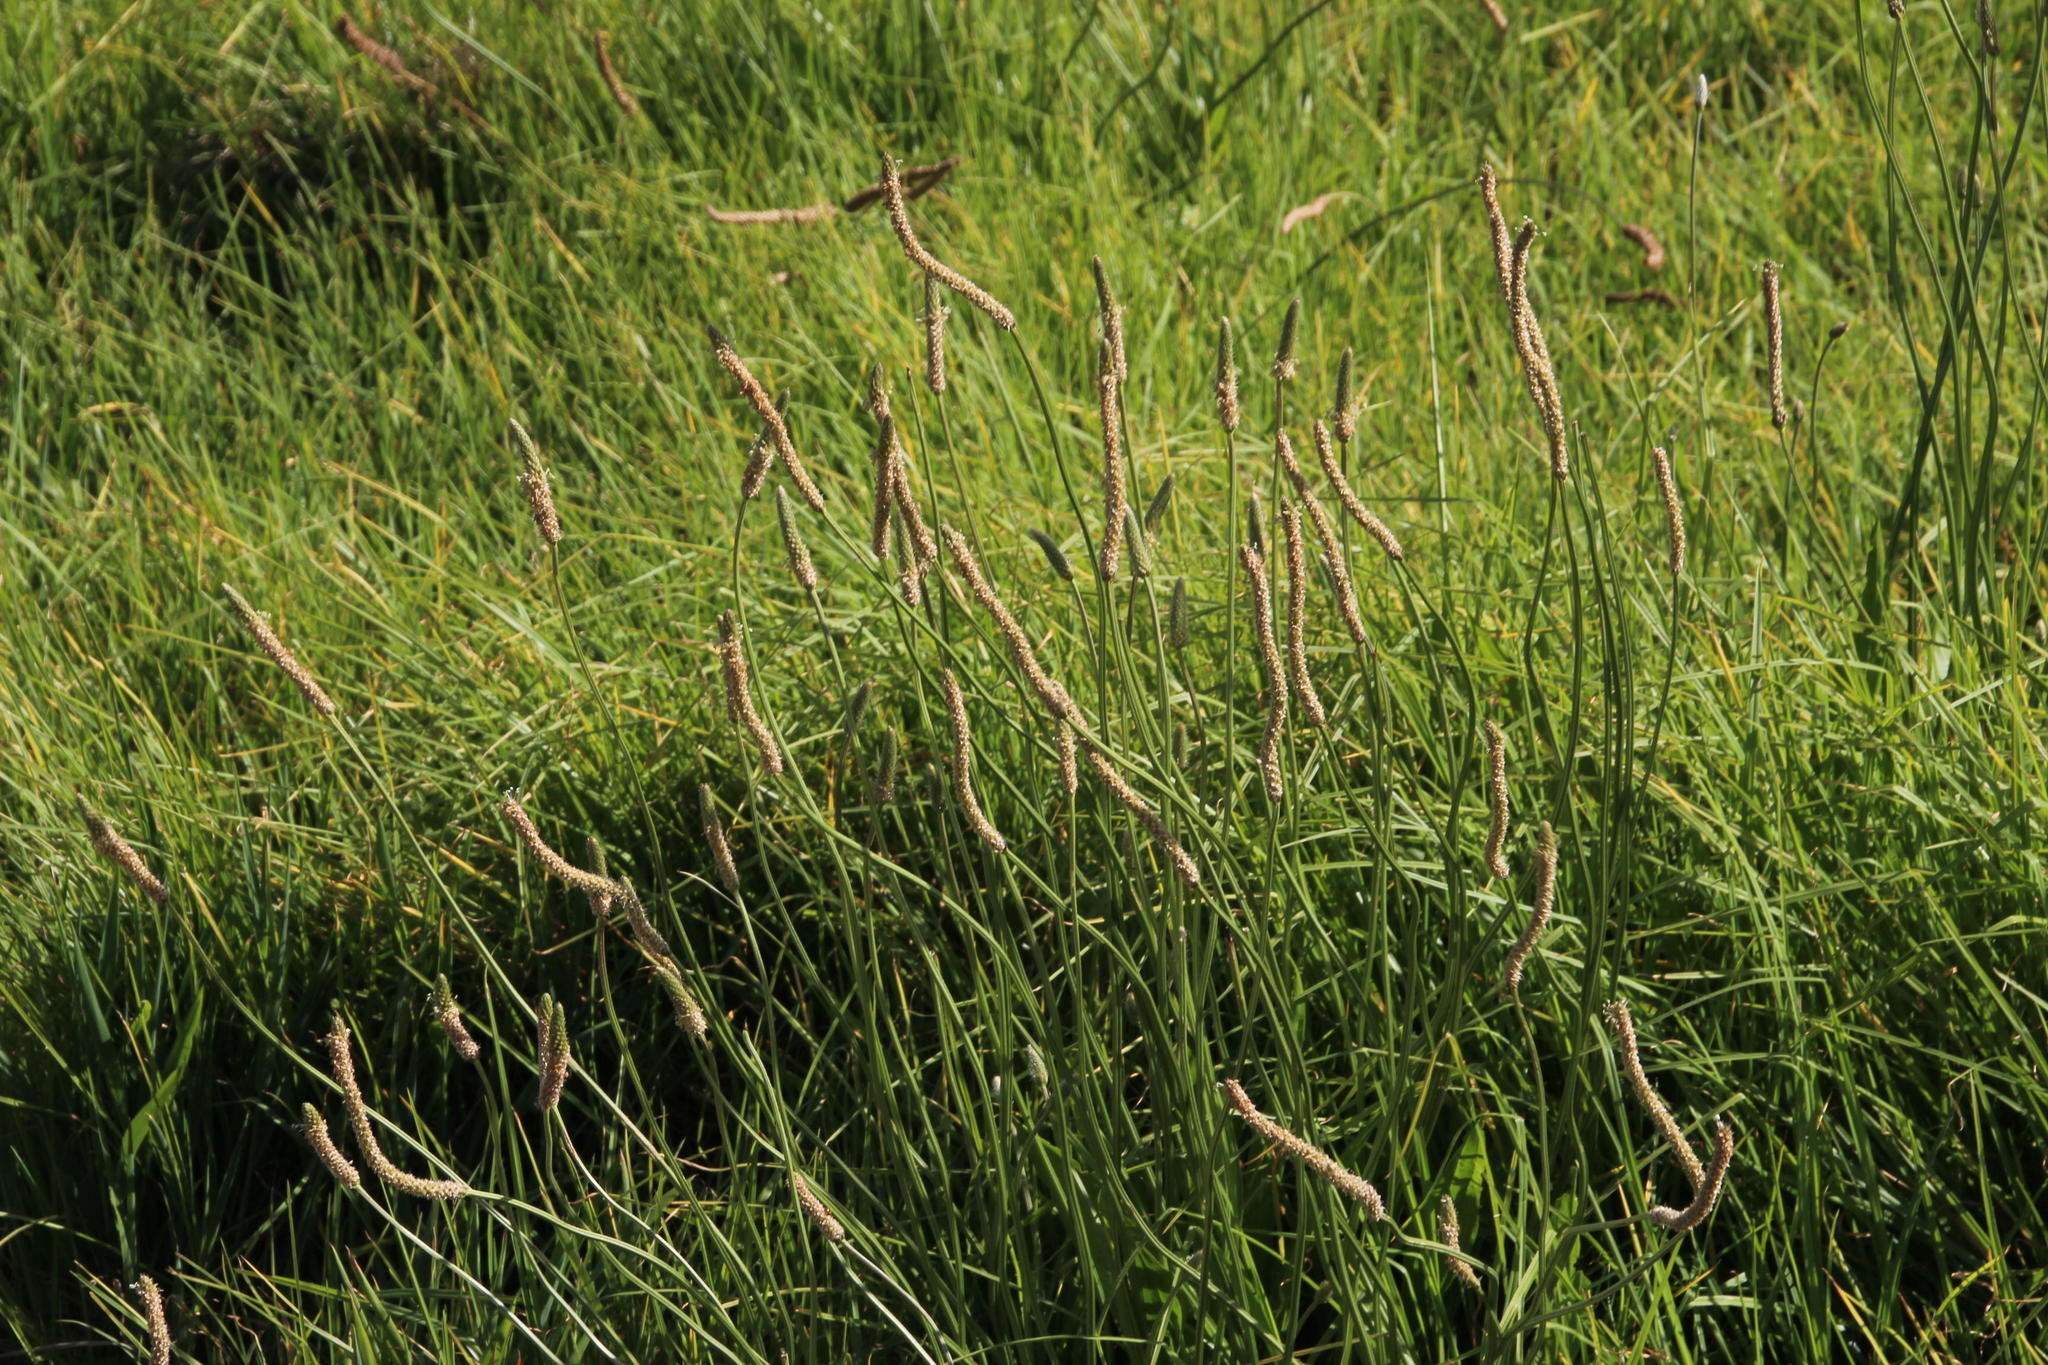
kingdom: Plantae
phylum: Tracheophyta
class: Magnoliopsida
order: Lamiales
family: Plantaginaceae
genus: Plantago
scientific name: Plantago lanceolata
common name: Ribwort plantain
